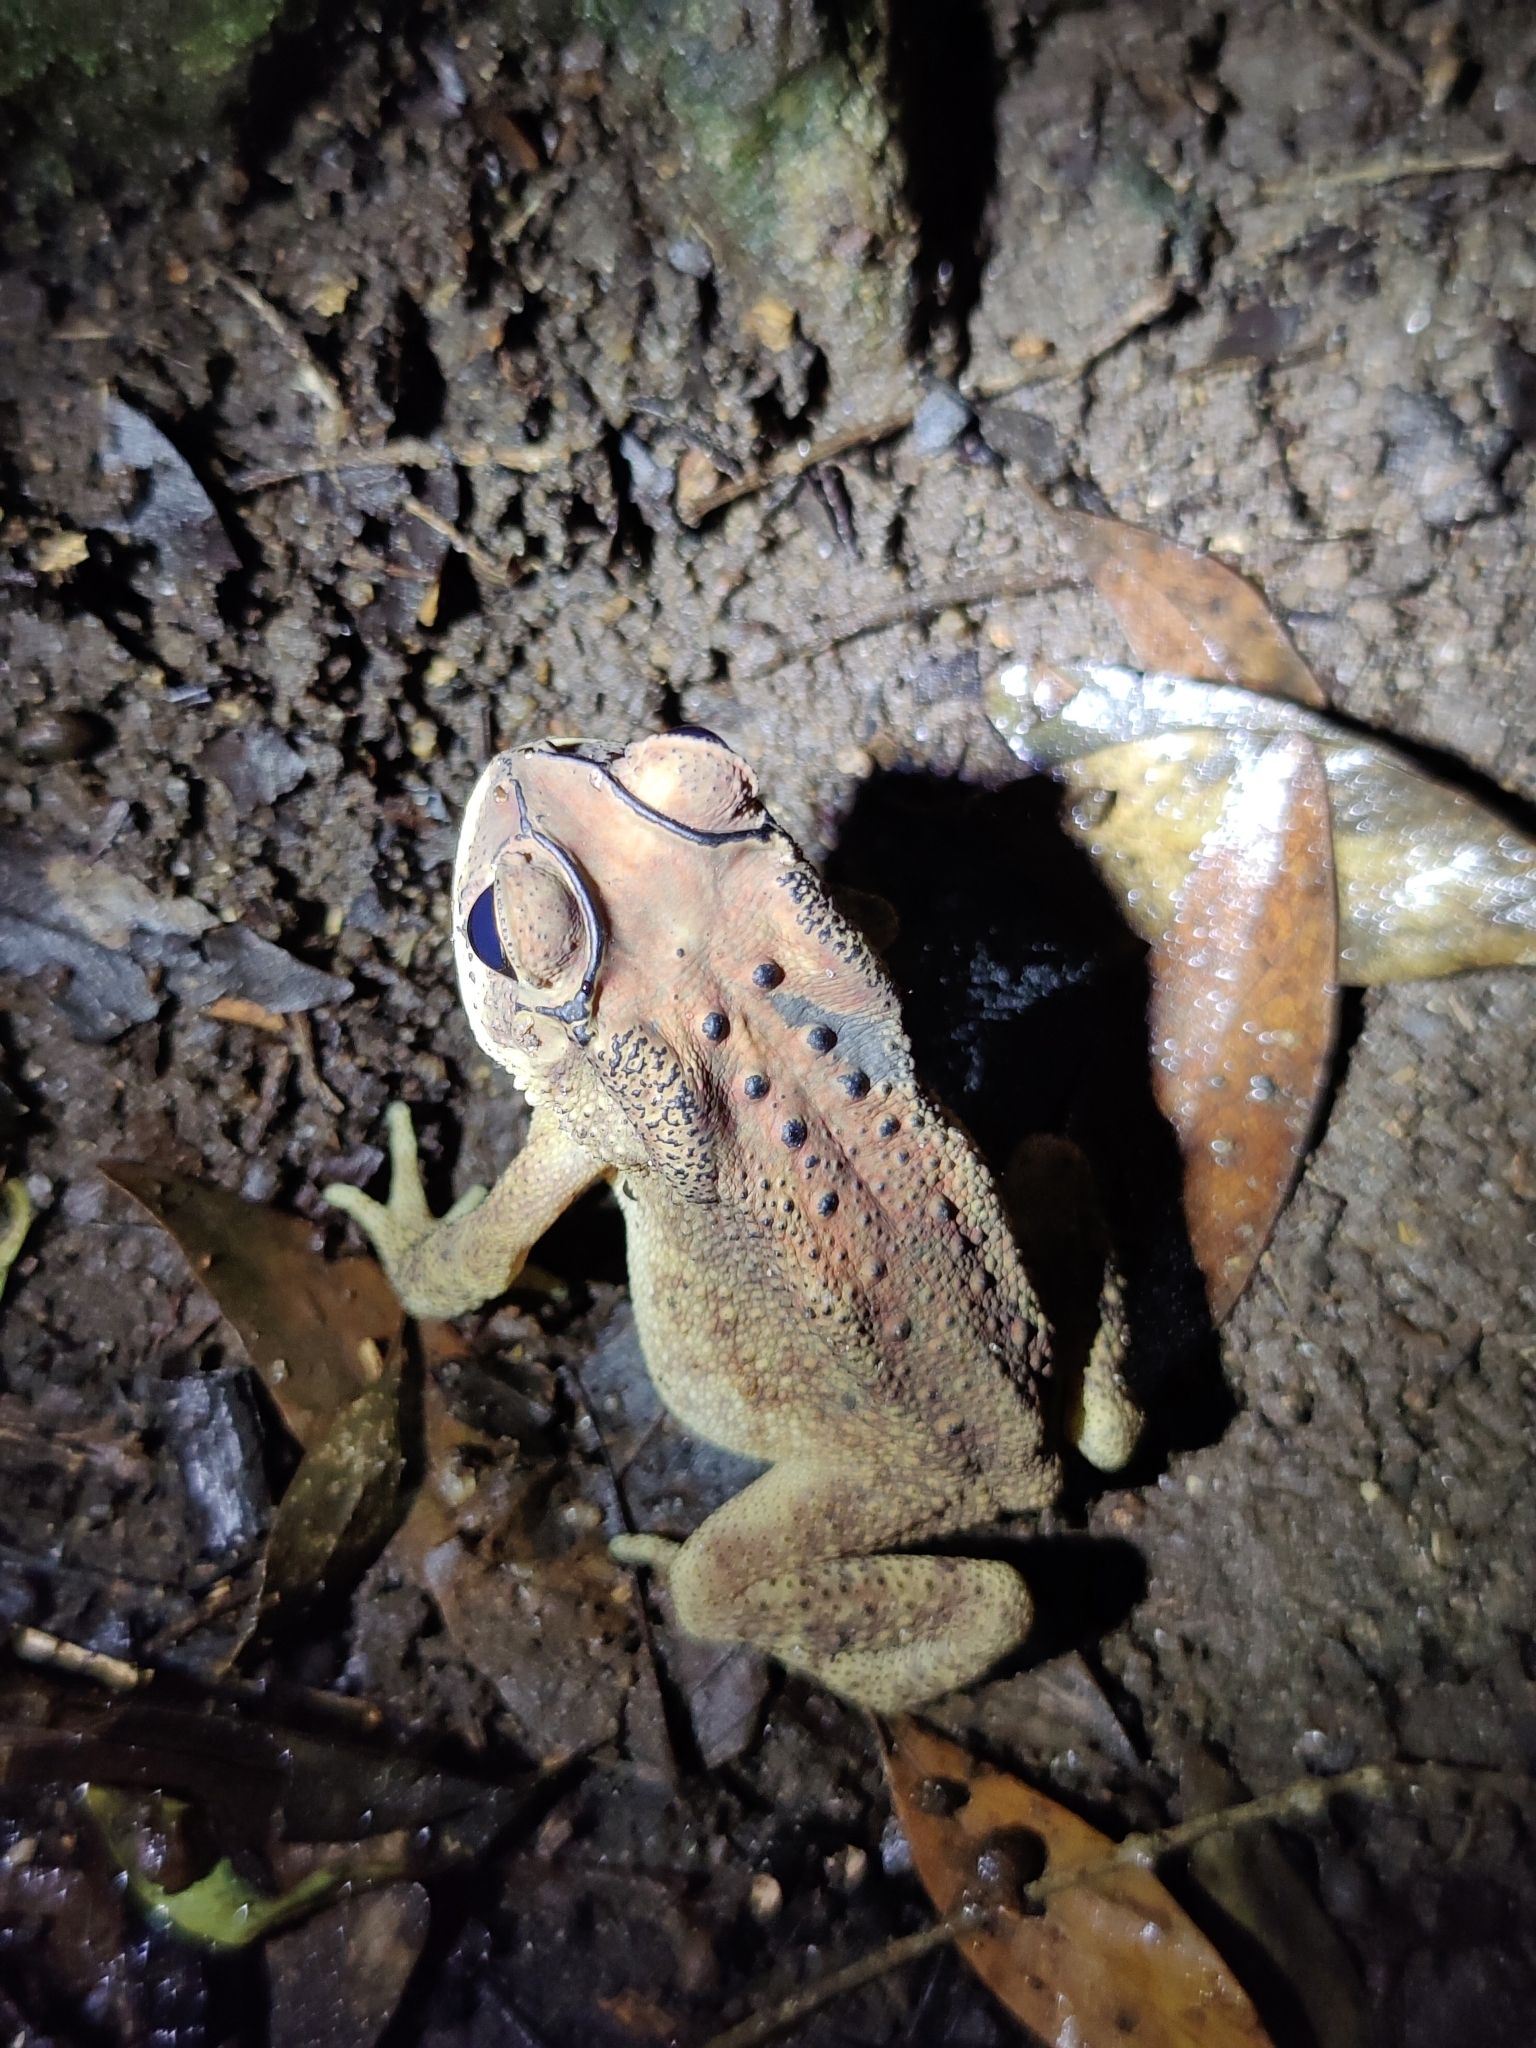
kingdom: Animalia
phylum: Chordata
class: Amphibia
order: Anura
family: Bufonidae
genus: Duttaphrynus
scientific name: Duttaphrynus melanostictus
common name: Common sunda toad
